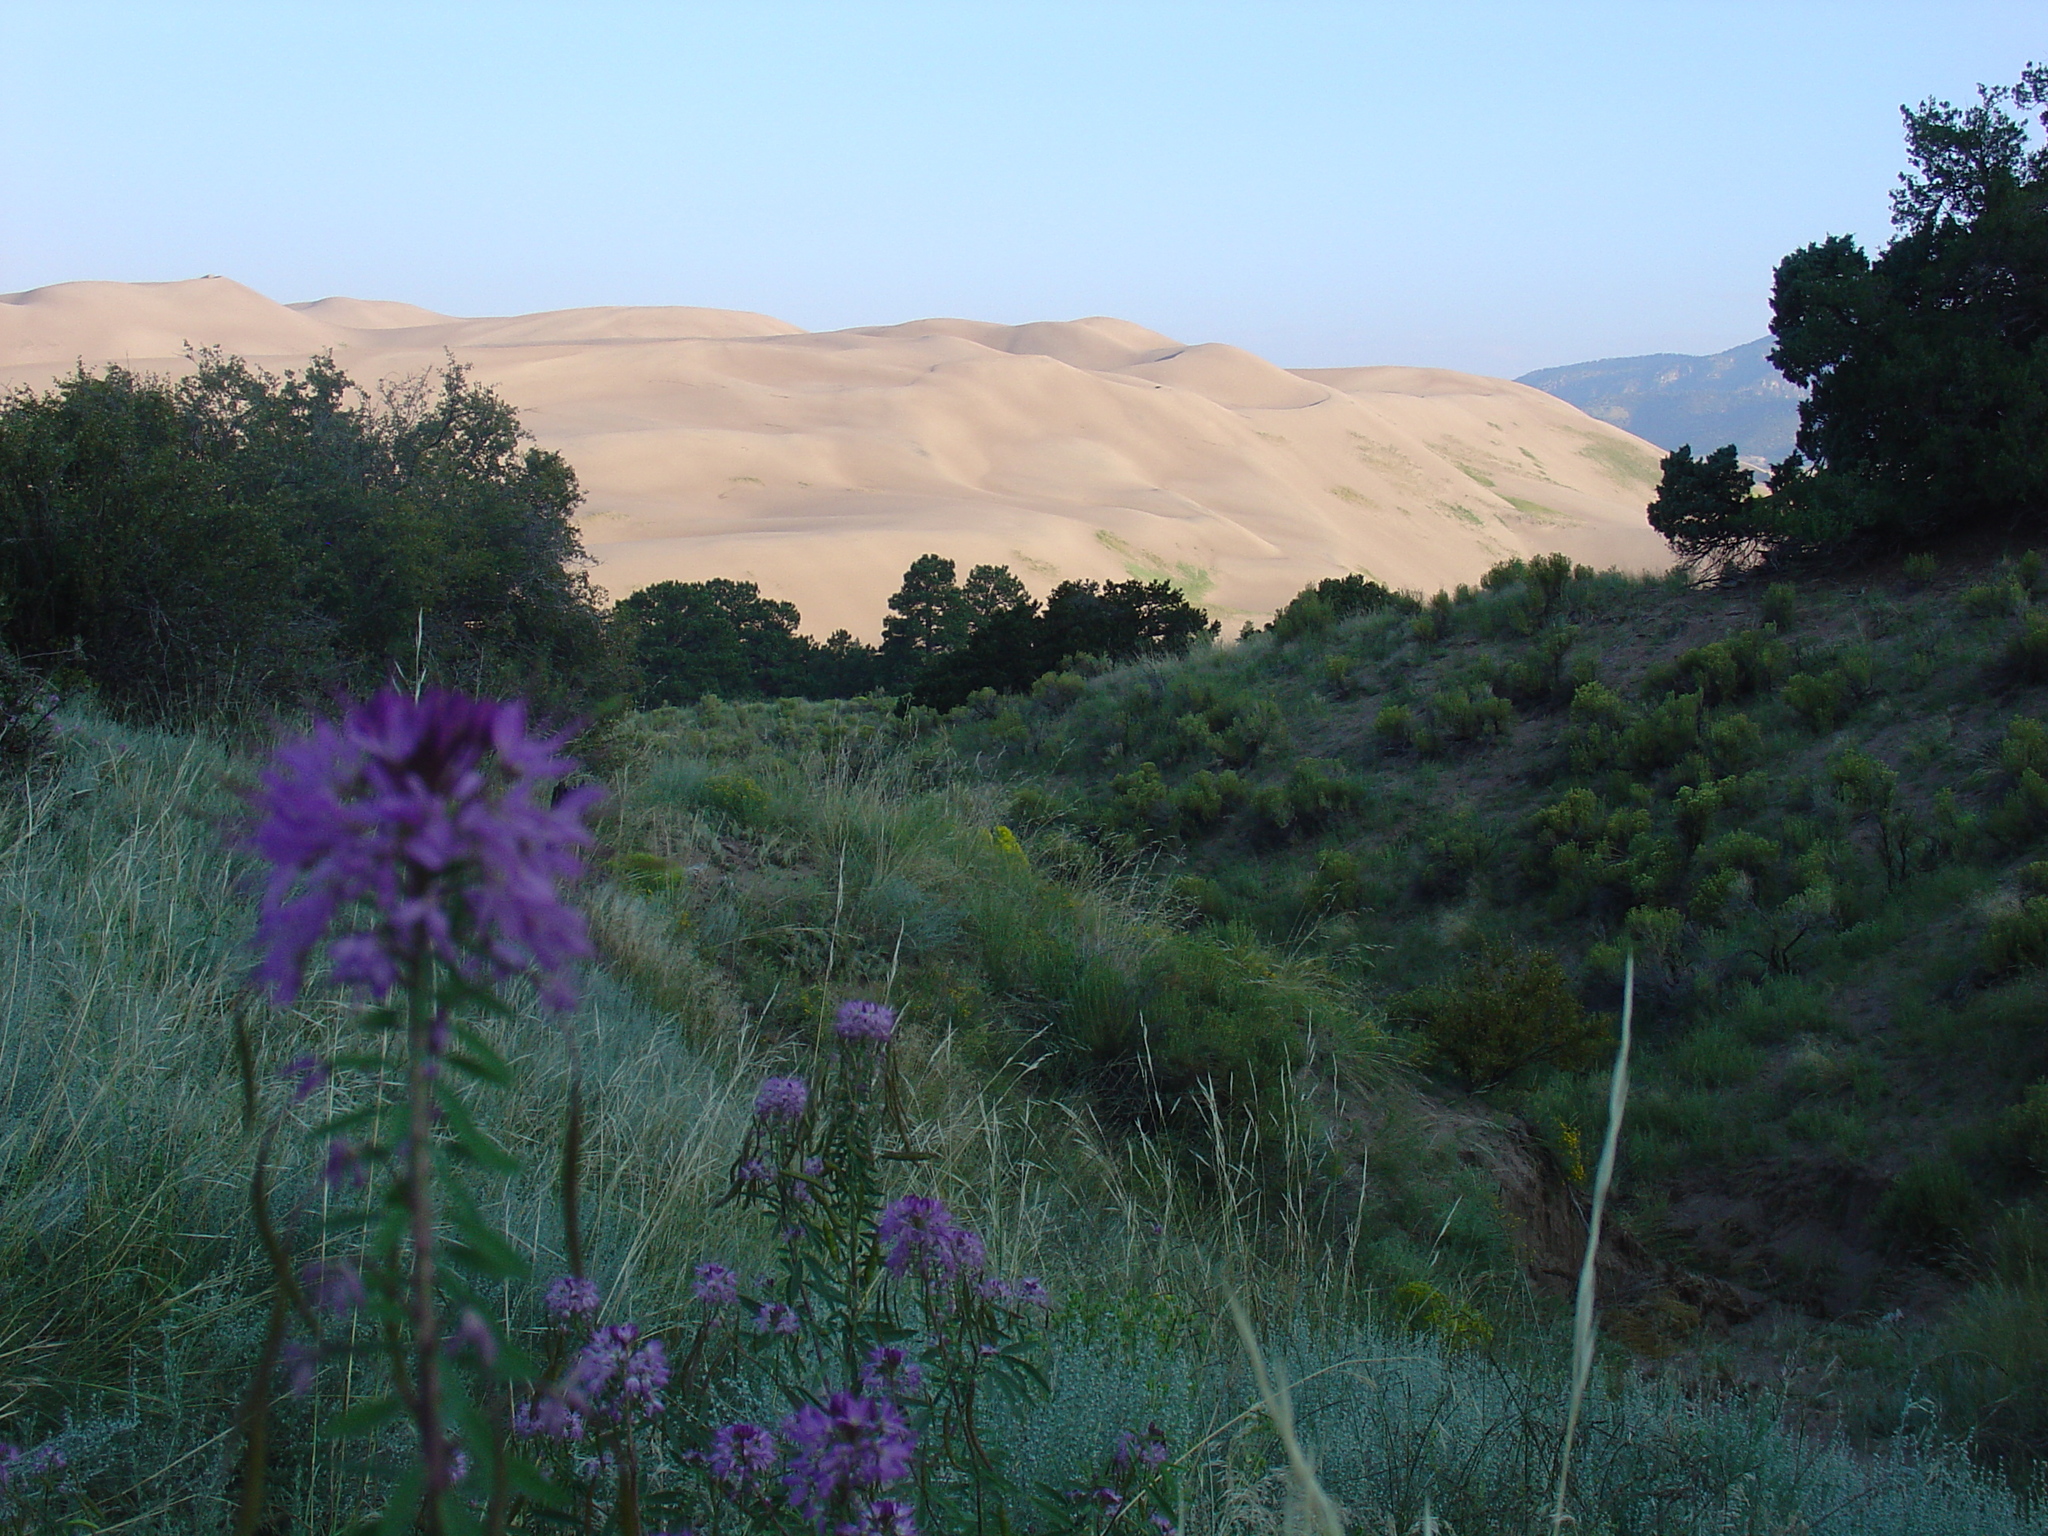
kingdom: Plantae
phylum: Tracheophyta
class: Magnoliopsida
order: Brassicales
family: Cleomaceae
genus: Cleomella
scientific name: Cleomella serrulata
